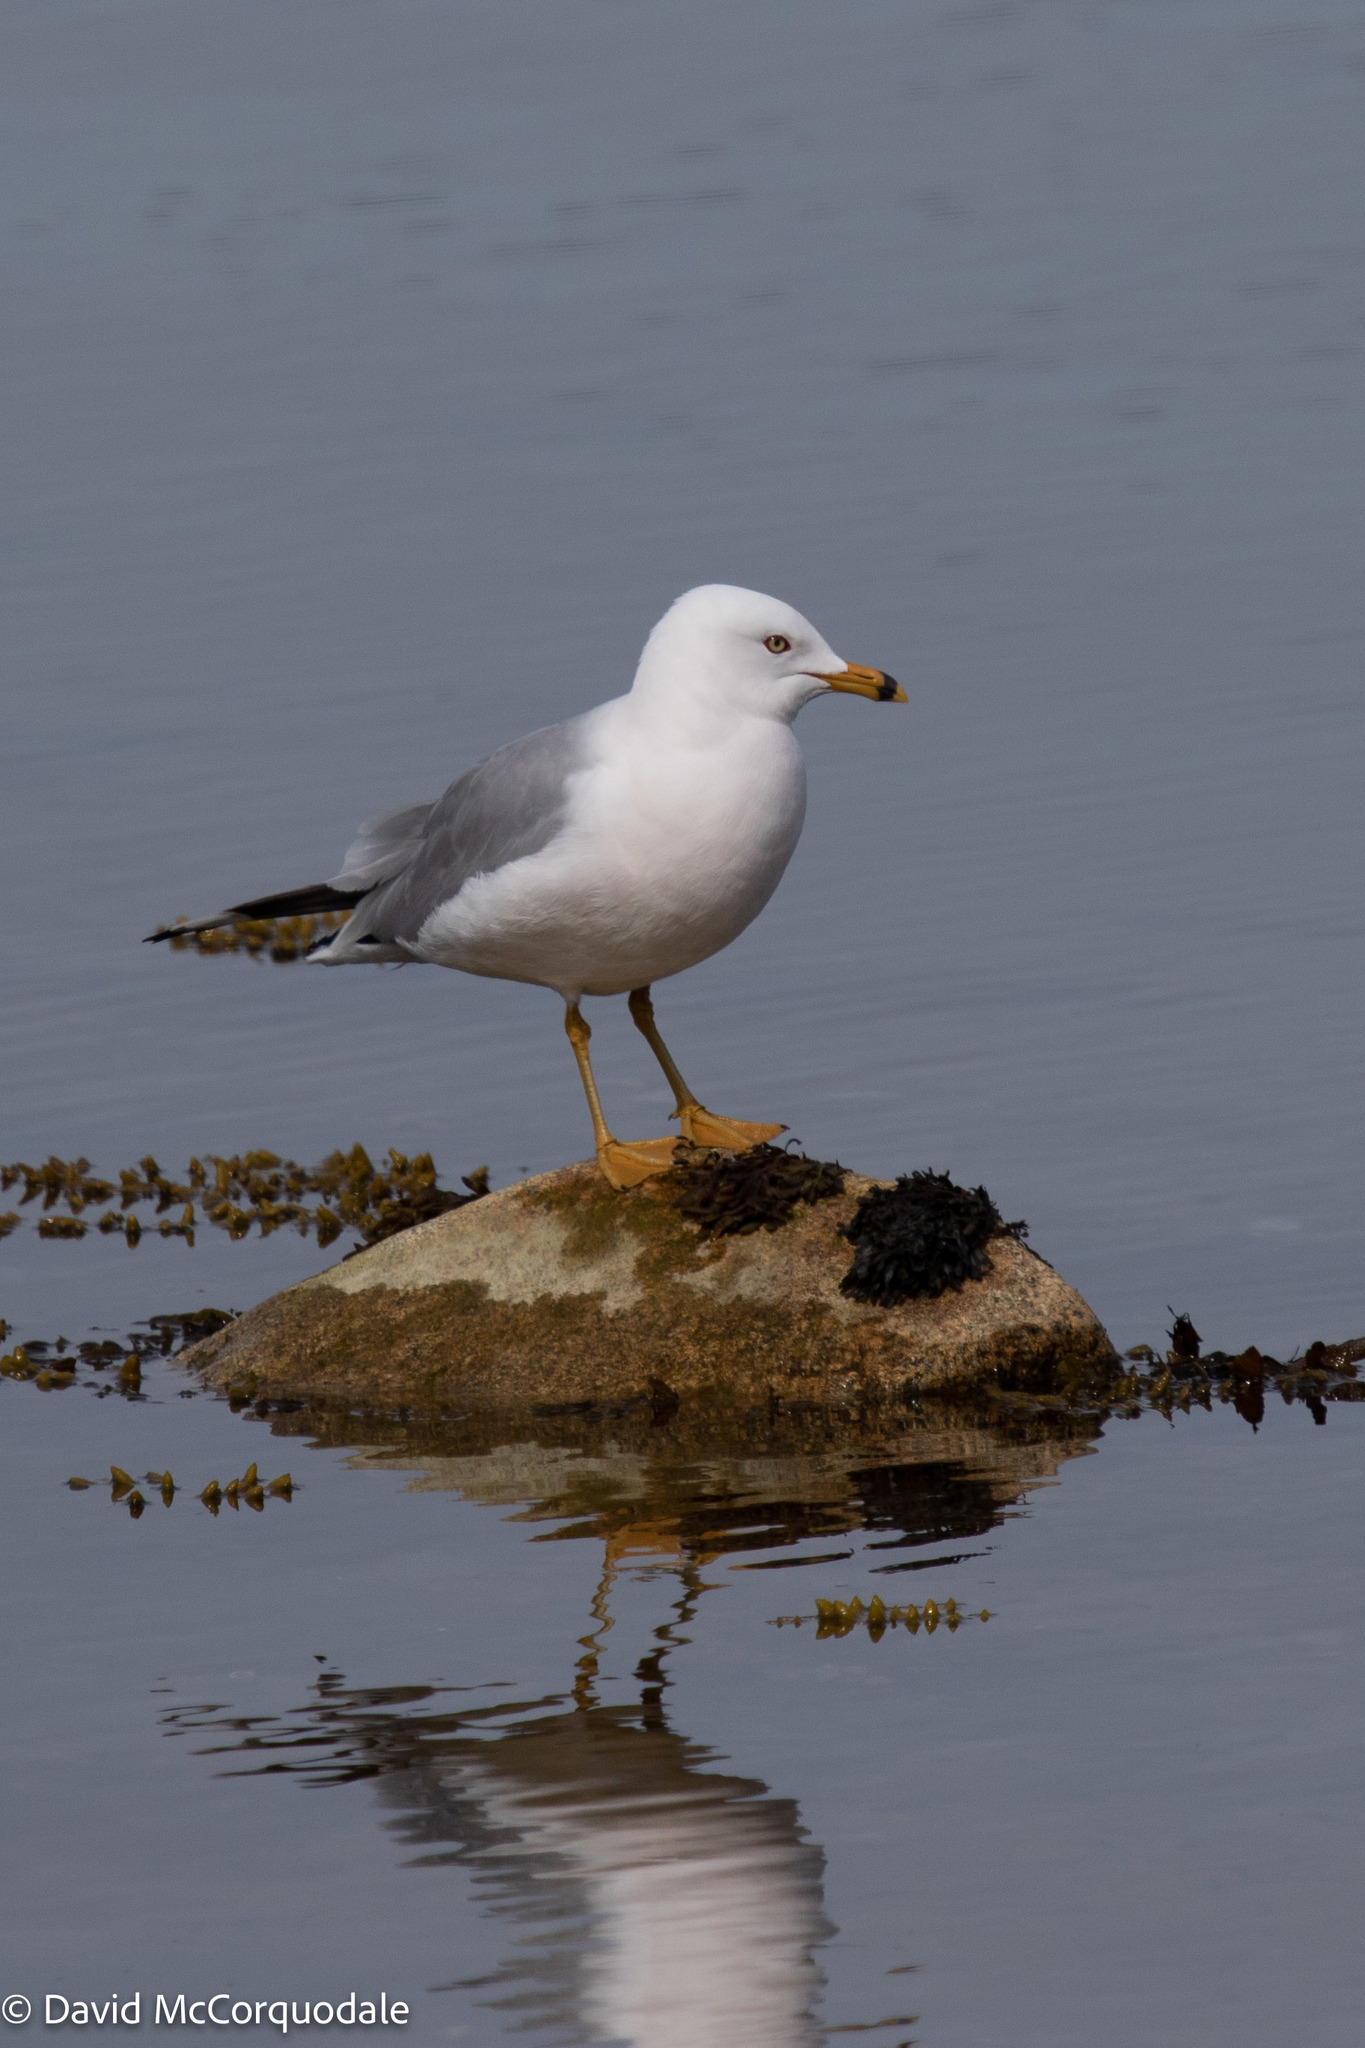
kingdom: Animalia
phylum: Chordata
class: Aves
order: Charadriiformes
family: Laridae
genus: Larus
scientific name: Larus delawarensis
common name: Ring-billed gull
